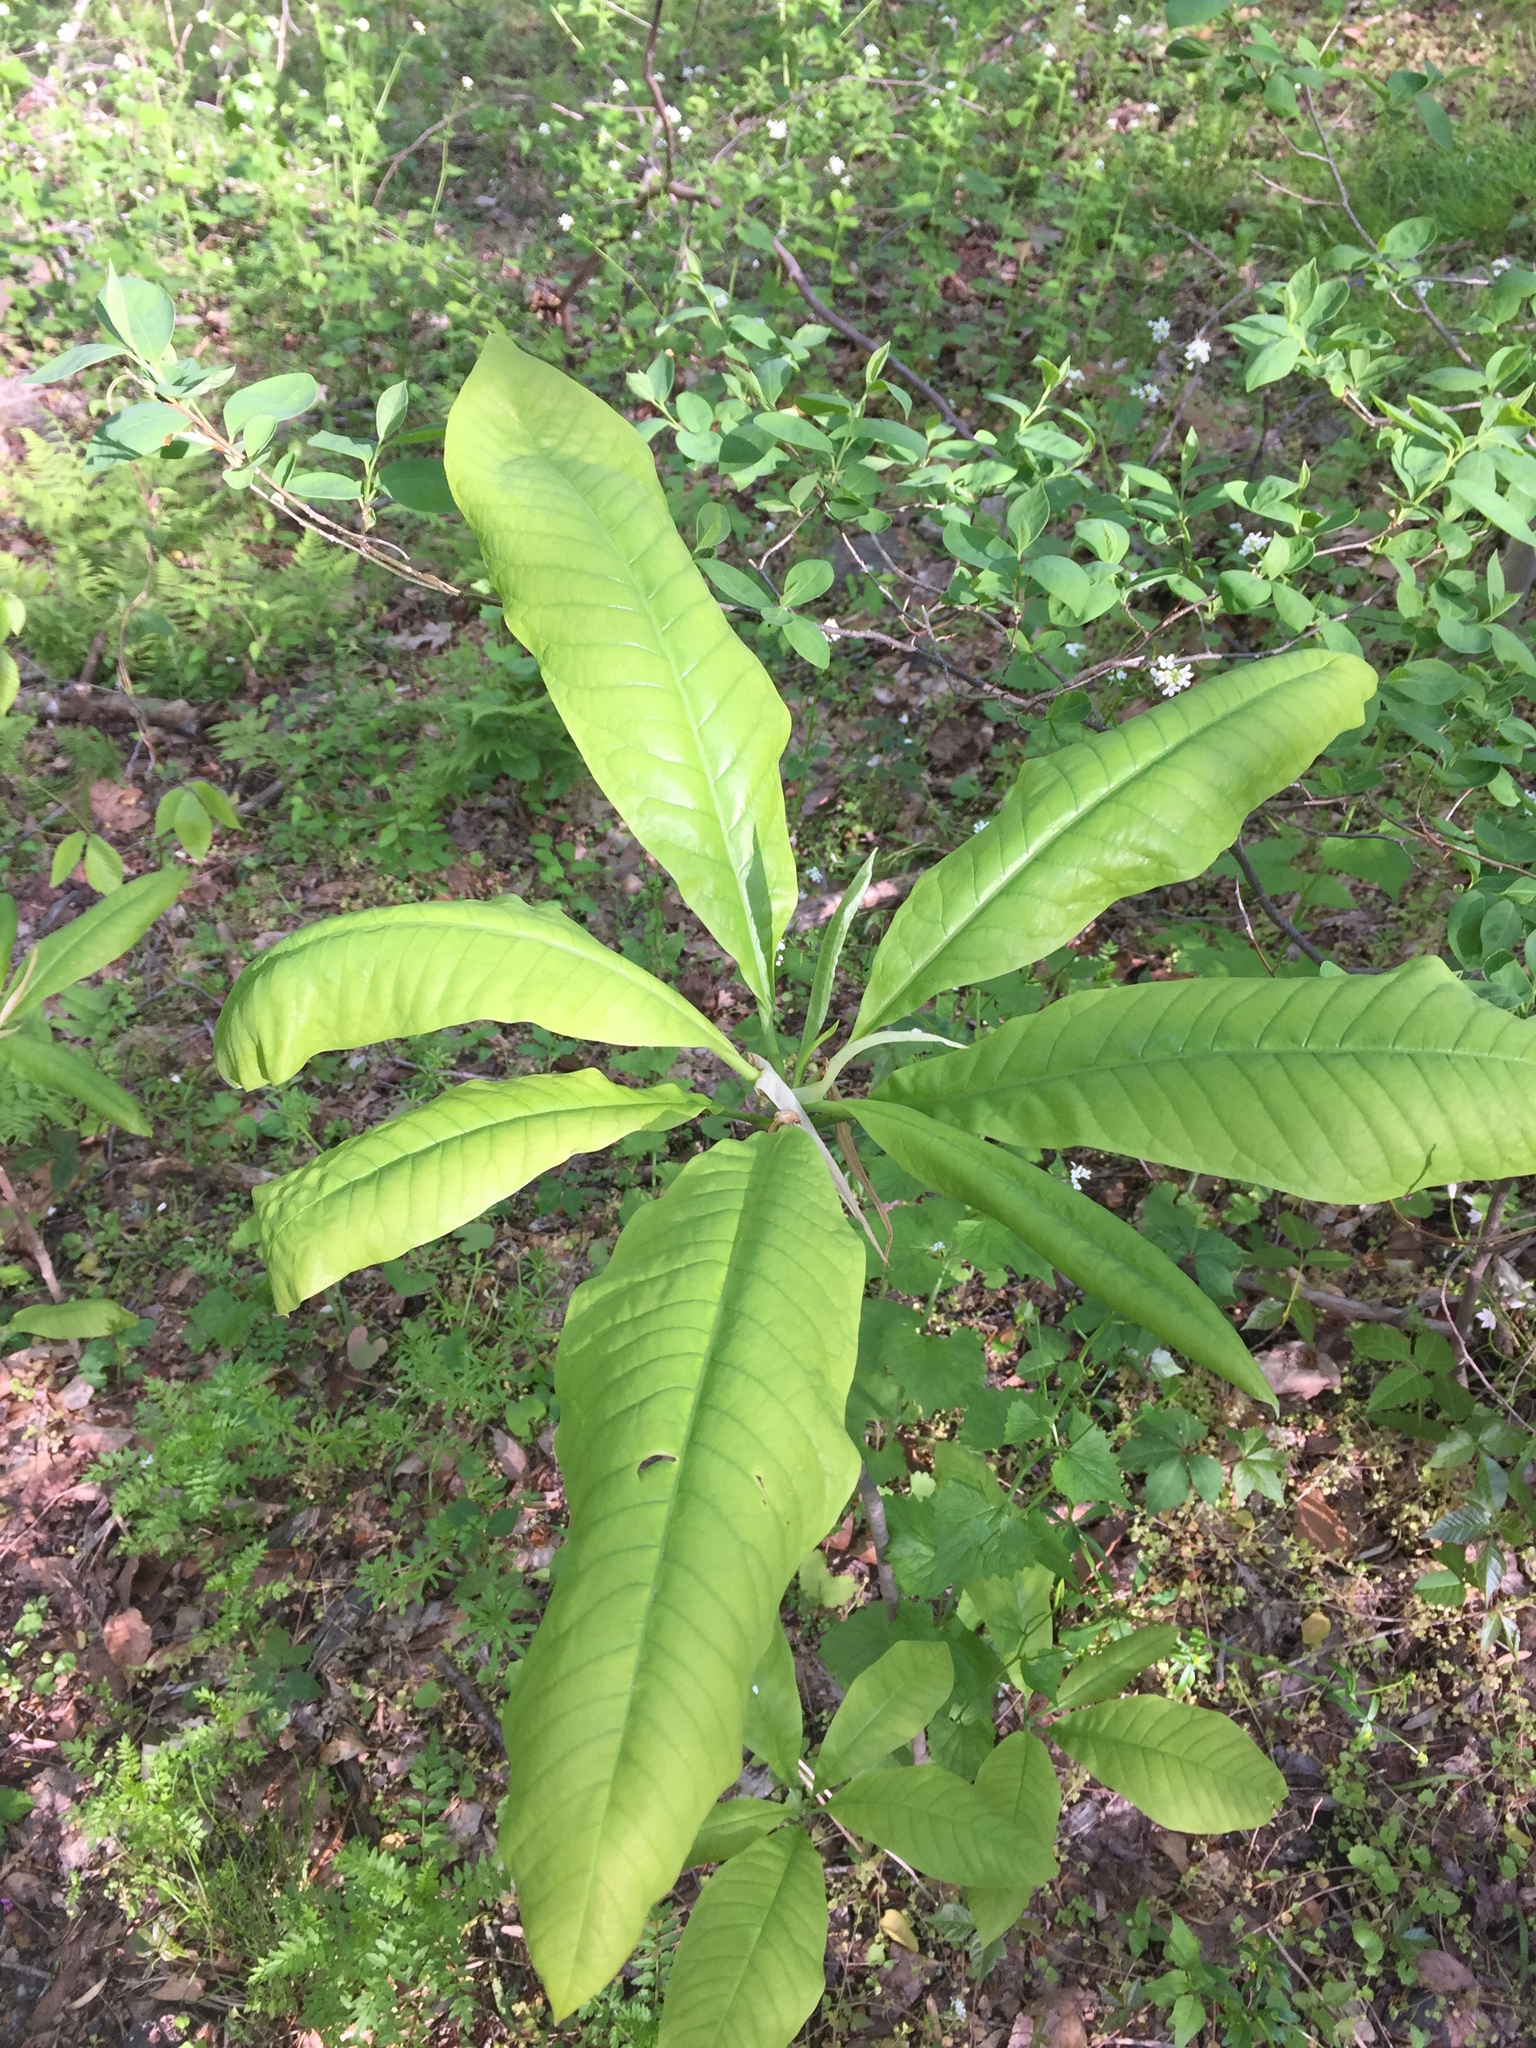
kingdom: Plantae
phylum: Tracheophyta
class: Magnoliopsida
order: Magnoliales
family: Magnoliaceae
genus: Magnolia
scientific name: Magnolia tripetala
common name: Umbrella magnolia
